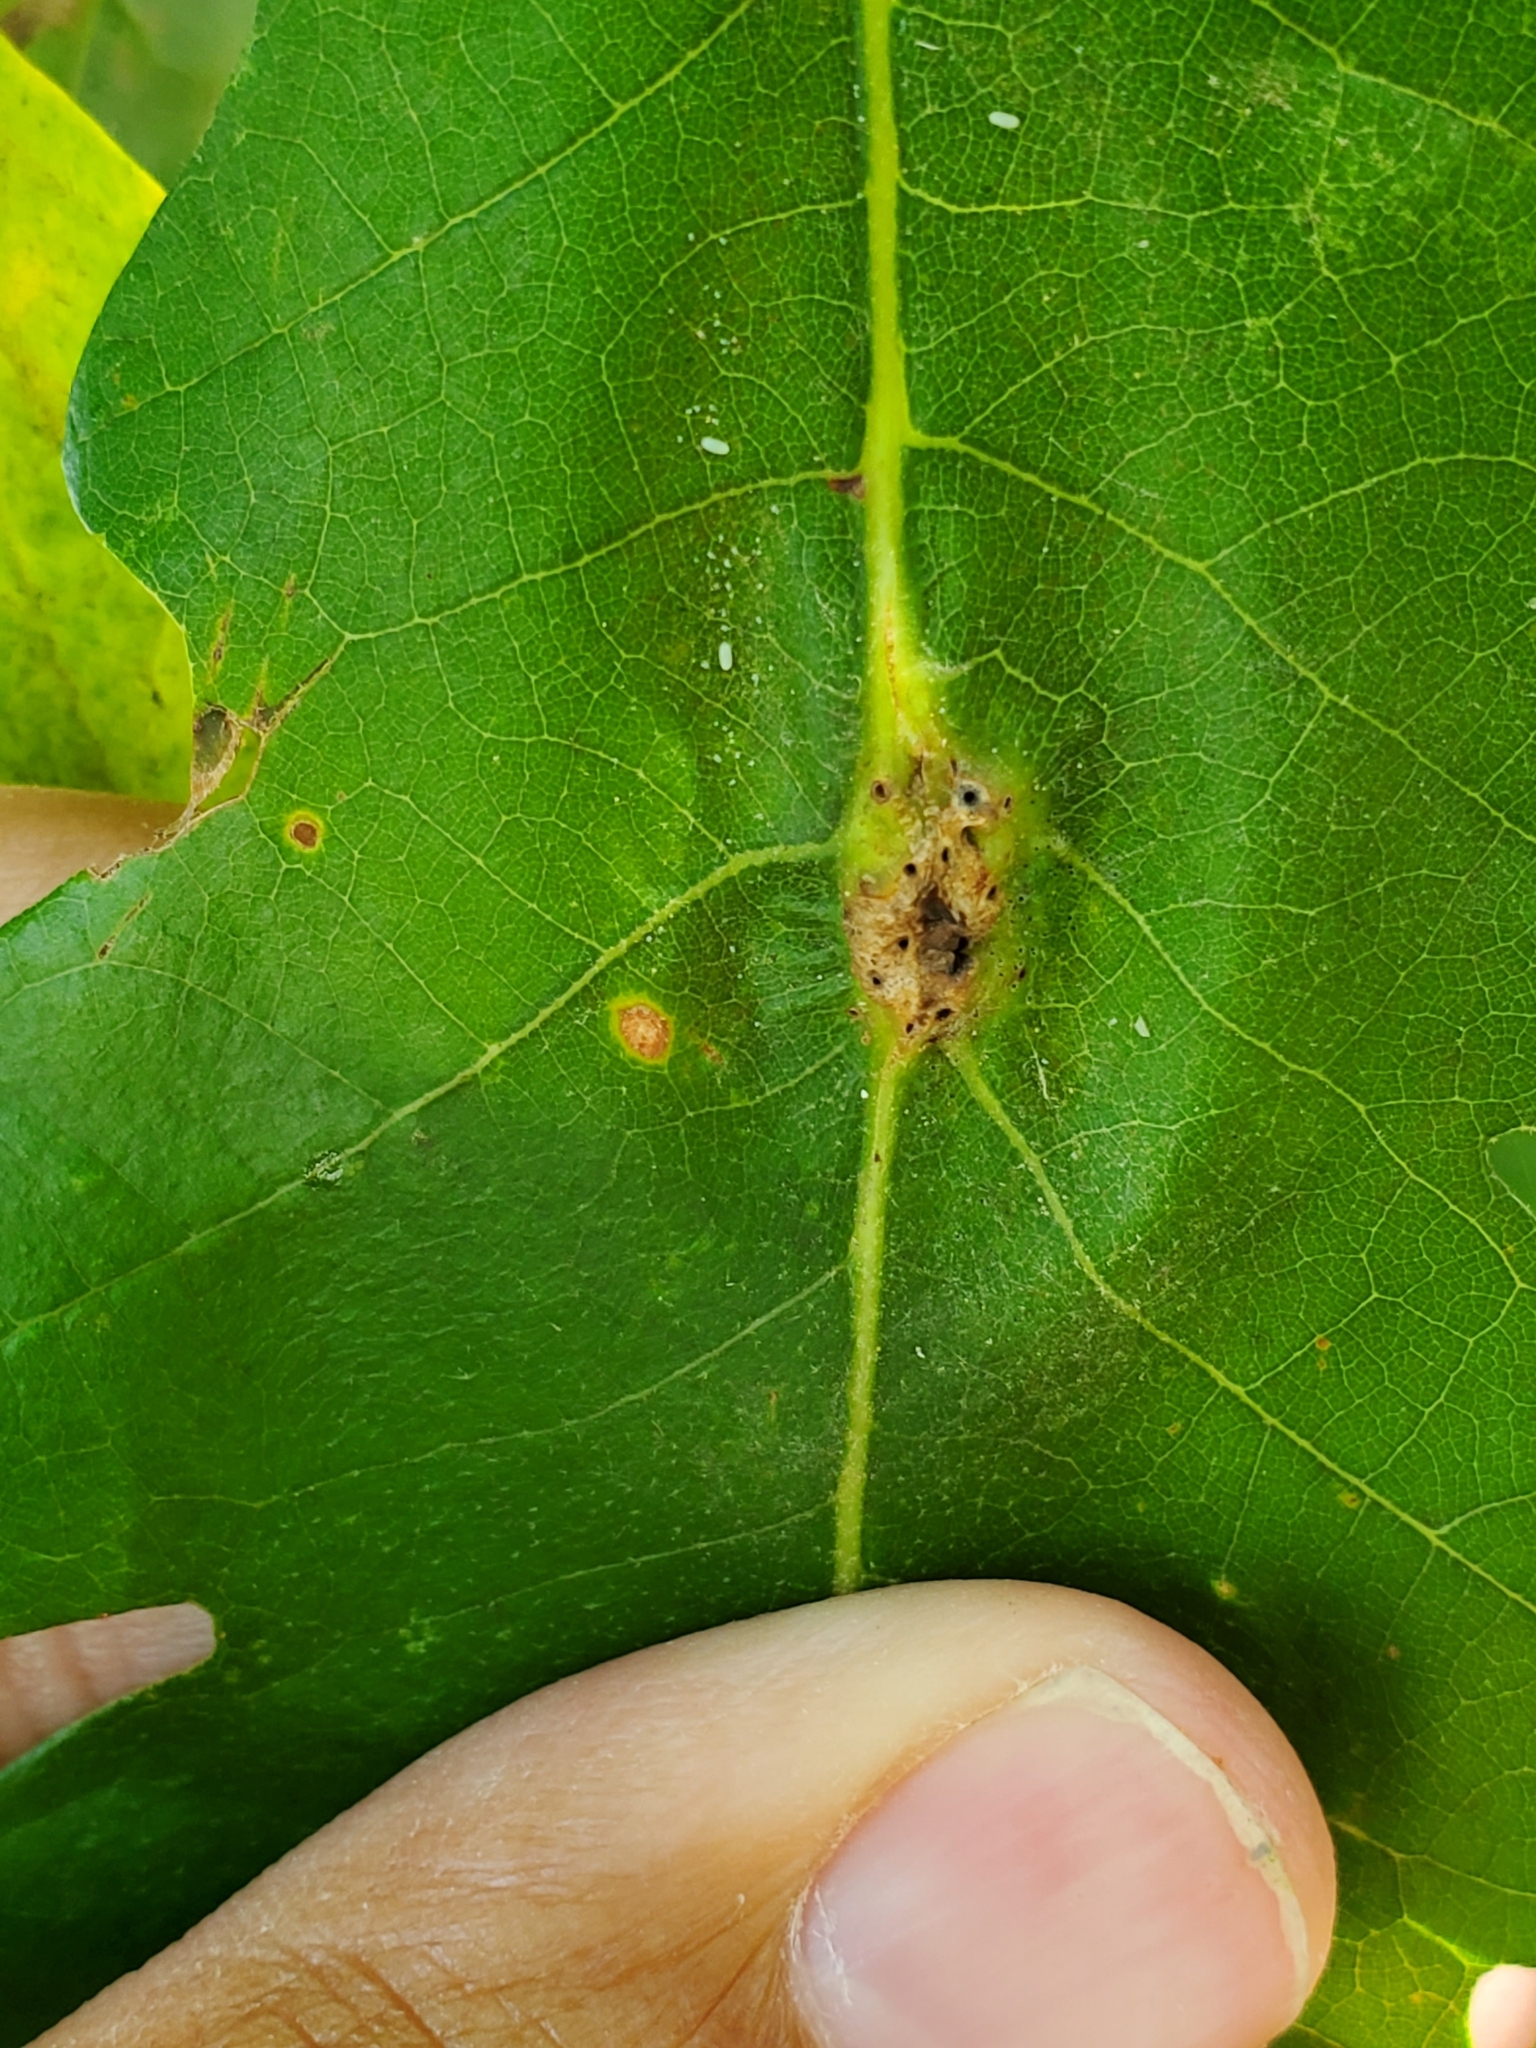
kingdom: Animalia
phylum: Arthropoda
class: Insecta
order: Hymenoptera
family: Cynipidae
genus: Bassettia
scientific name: Bassettia flavipes
